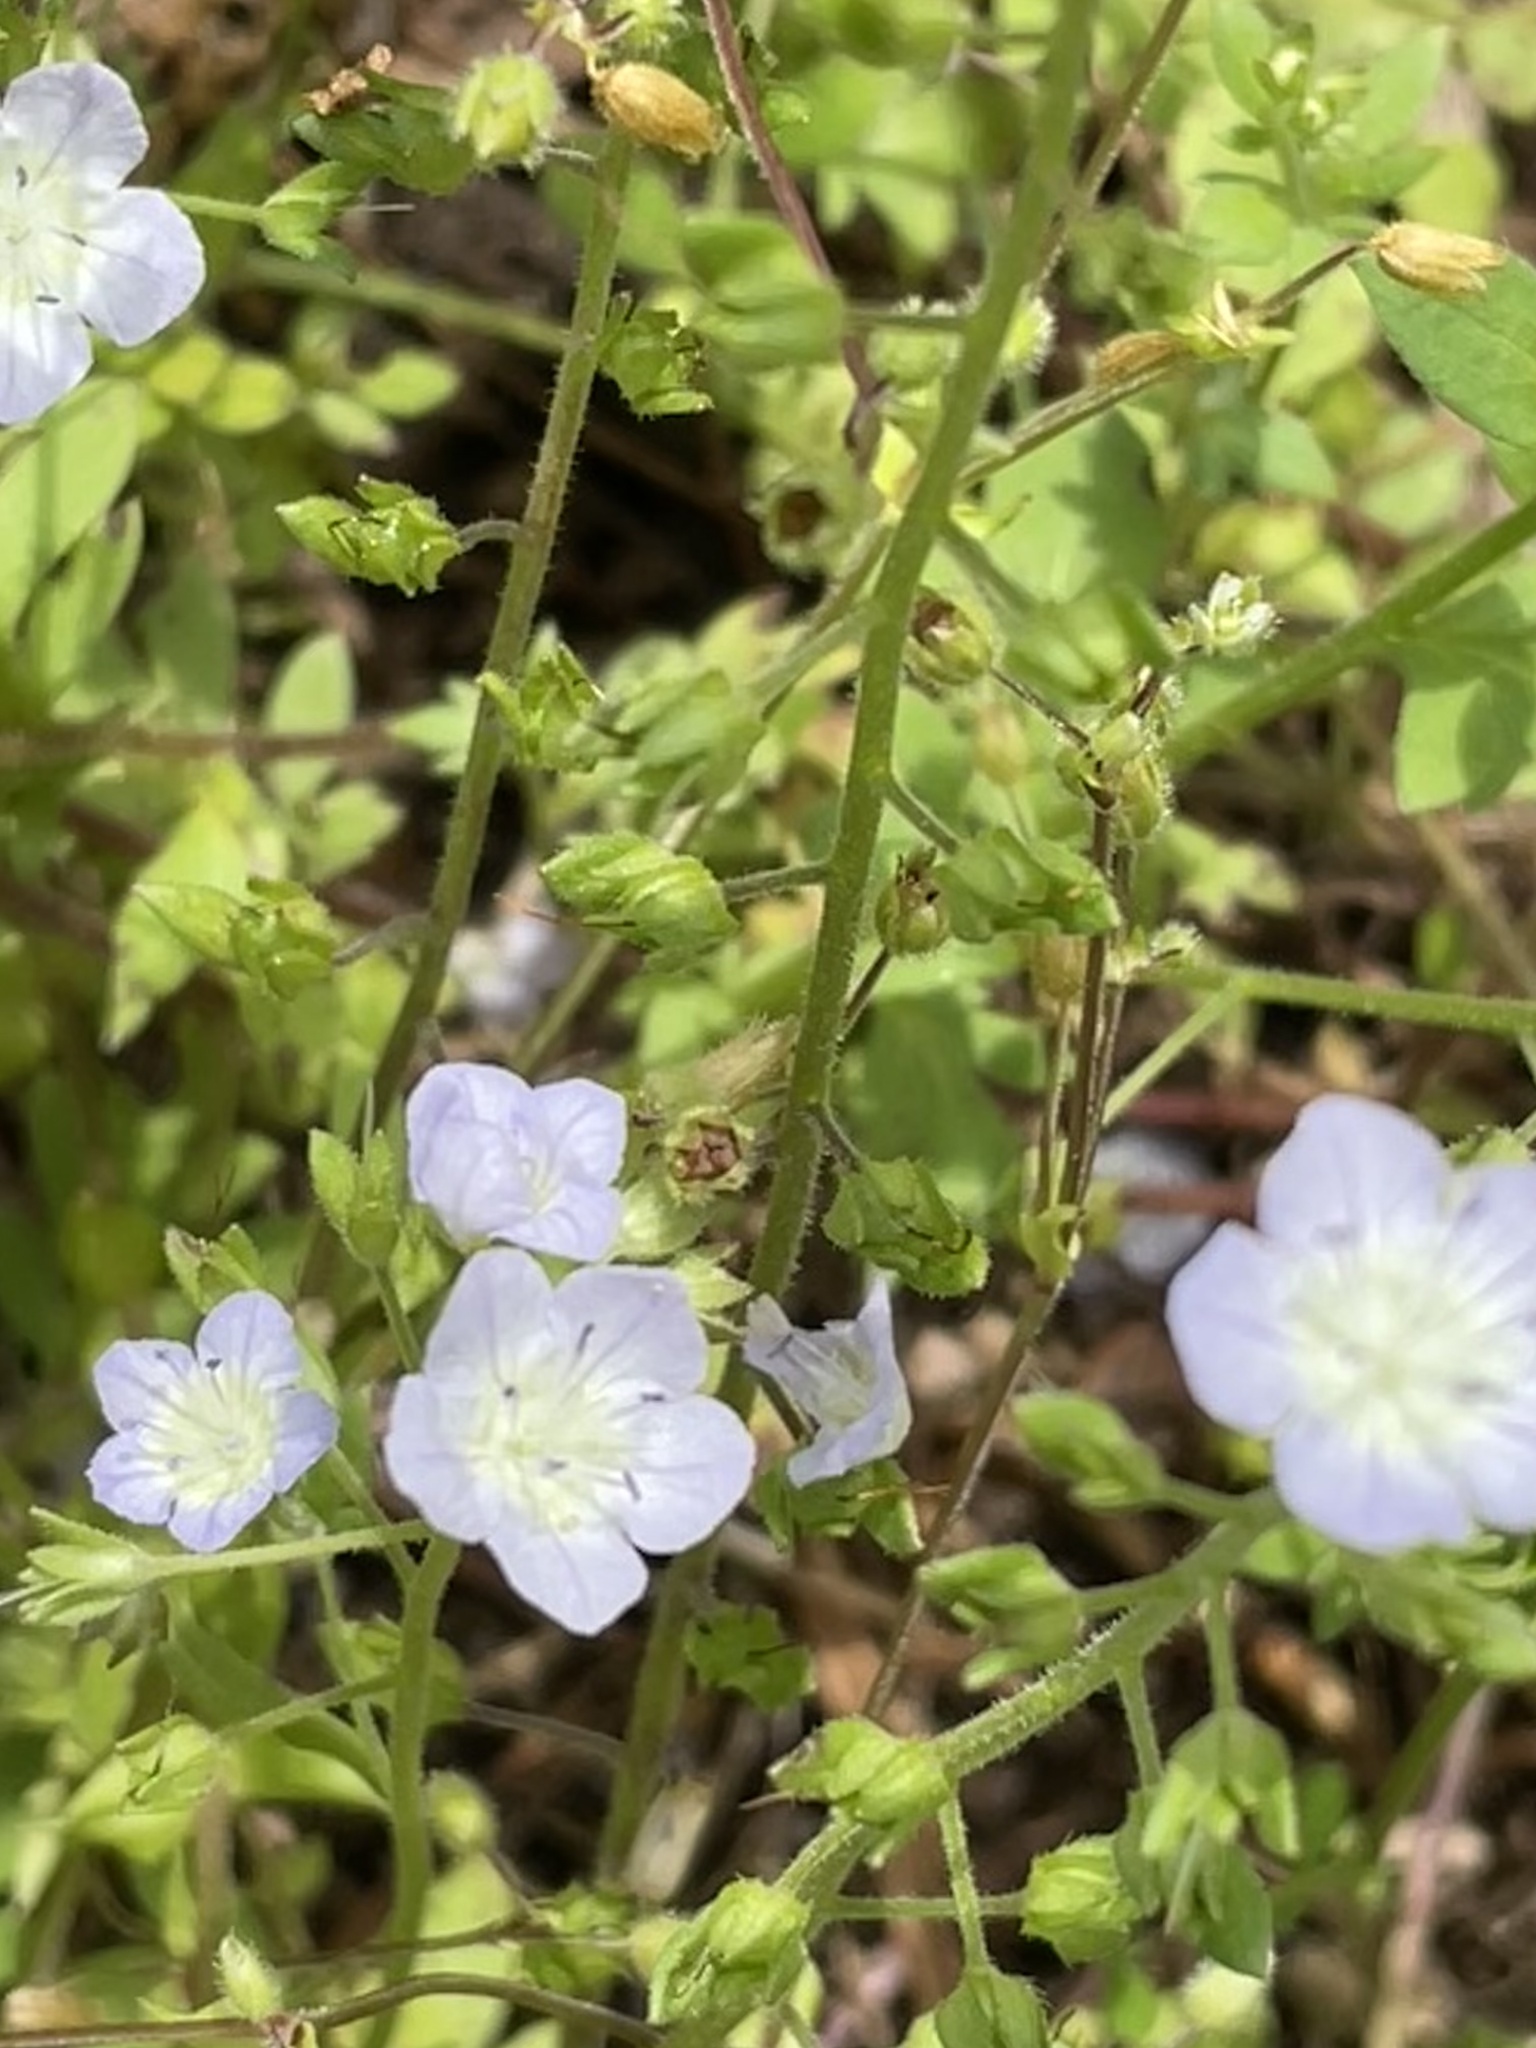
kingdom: Plantae
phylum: Tracheophyta
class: Magnoliopsida
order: Boraginales
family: Hydrophyllaceae
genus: Phacelia
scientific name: Phacelia dubia
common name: Appalachian phacelia
